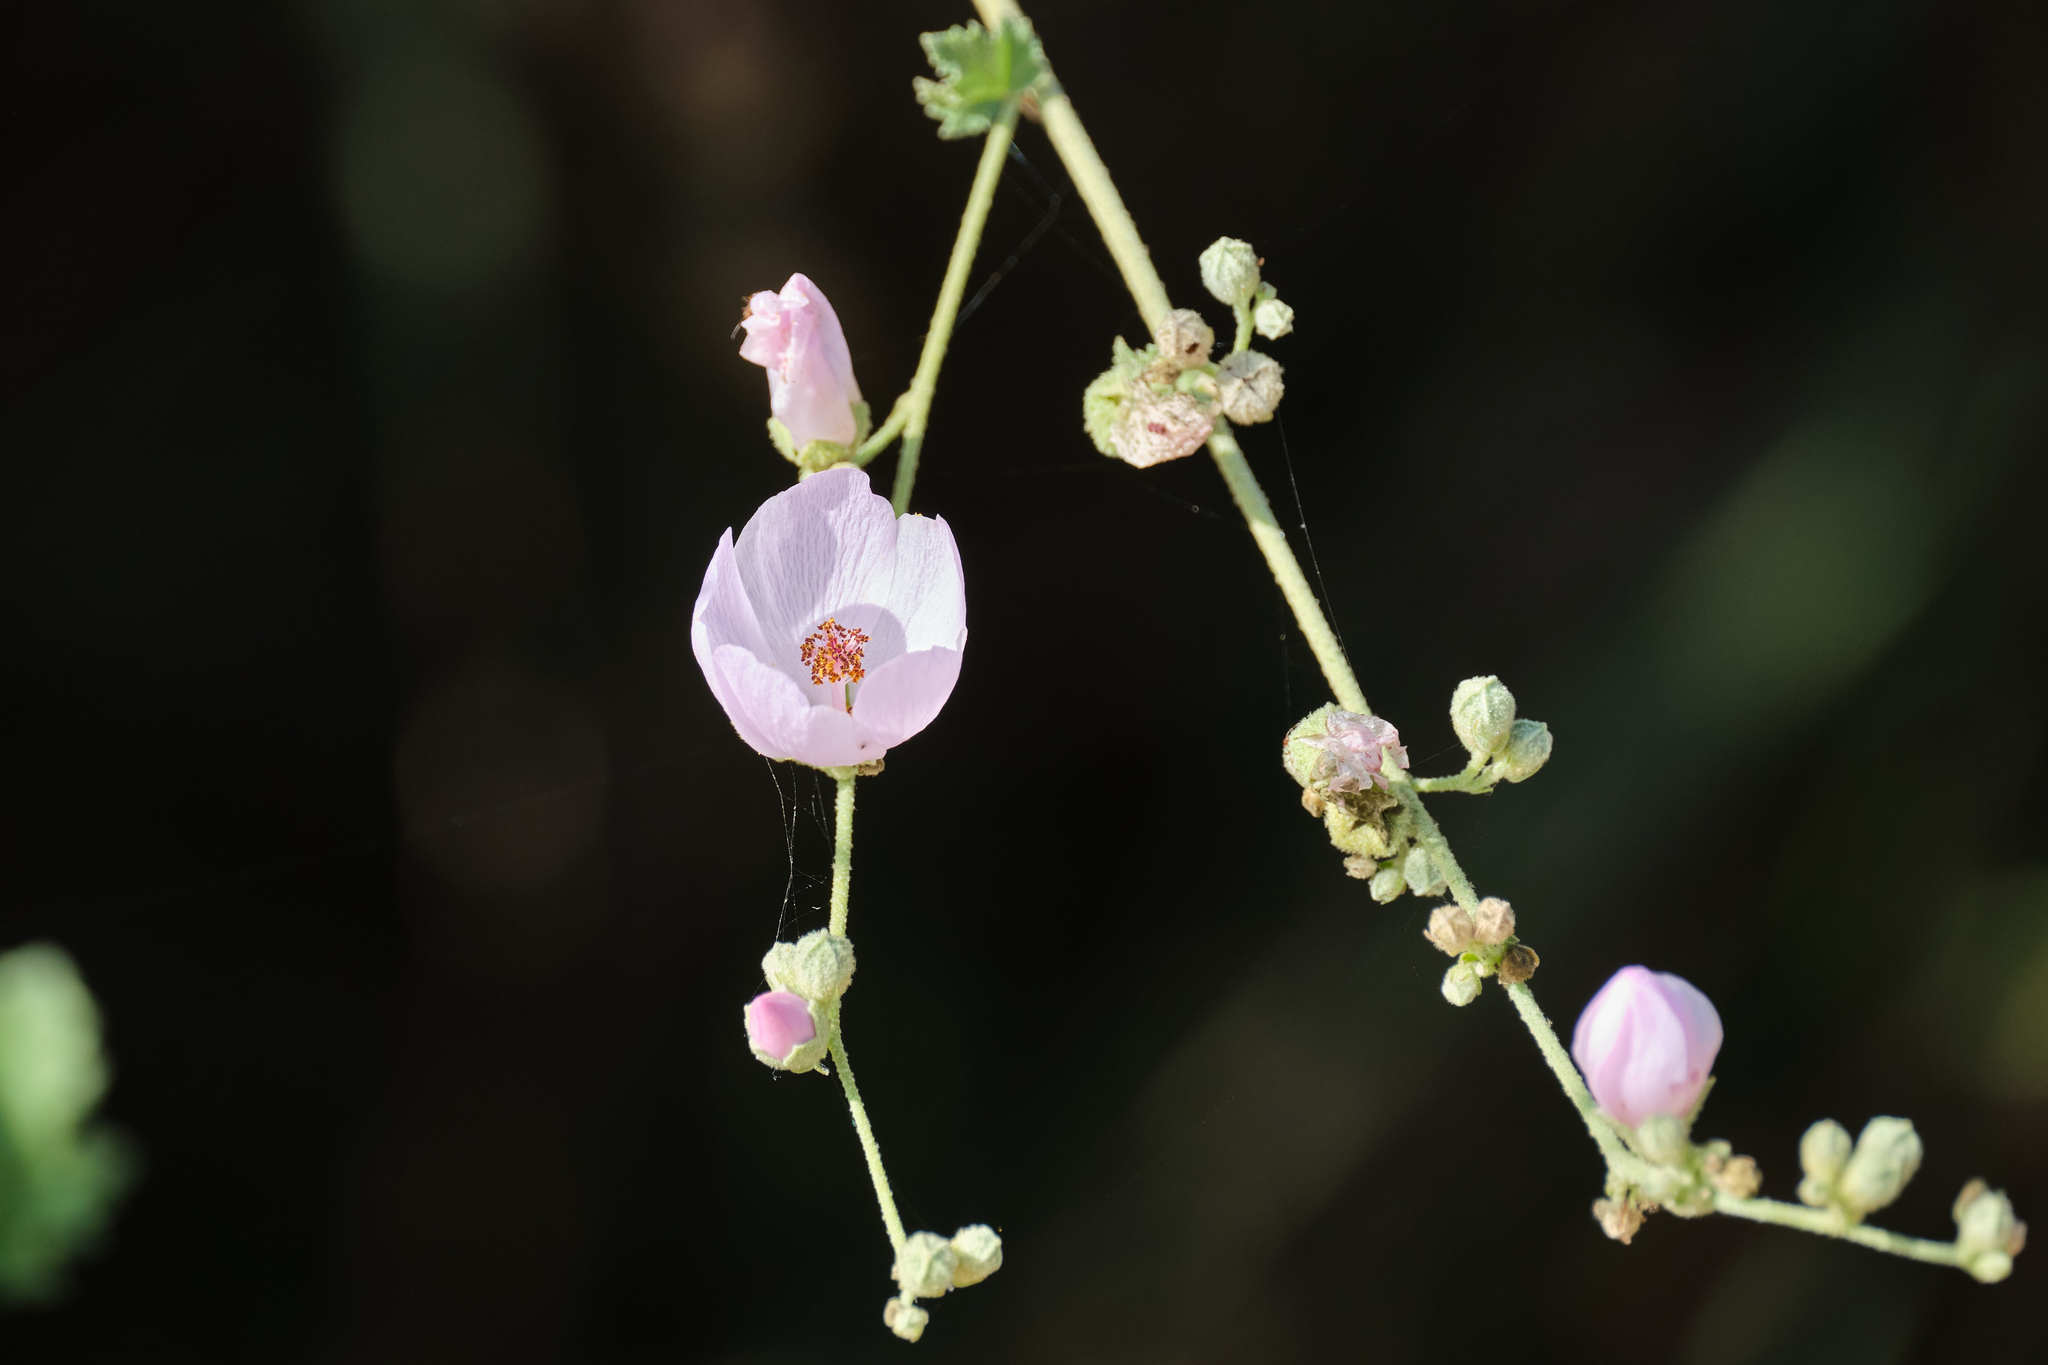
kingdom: Plantae
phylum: Tracheophyta
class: Magnoliopsida
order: Malvales
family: Malvaceae
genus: Malacothamnus
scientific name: Malacothamnus fasciculatus
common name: Sant cruz island bush-mallow
